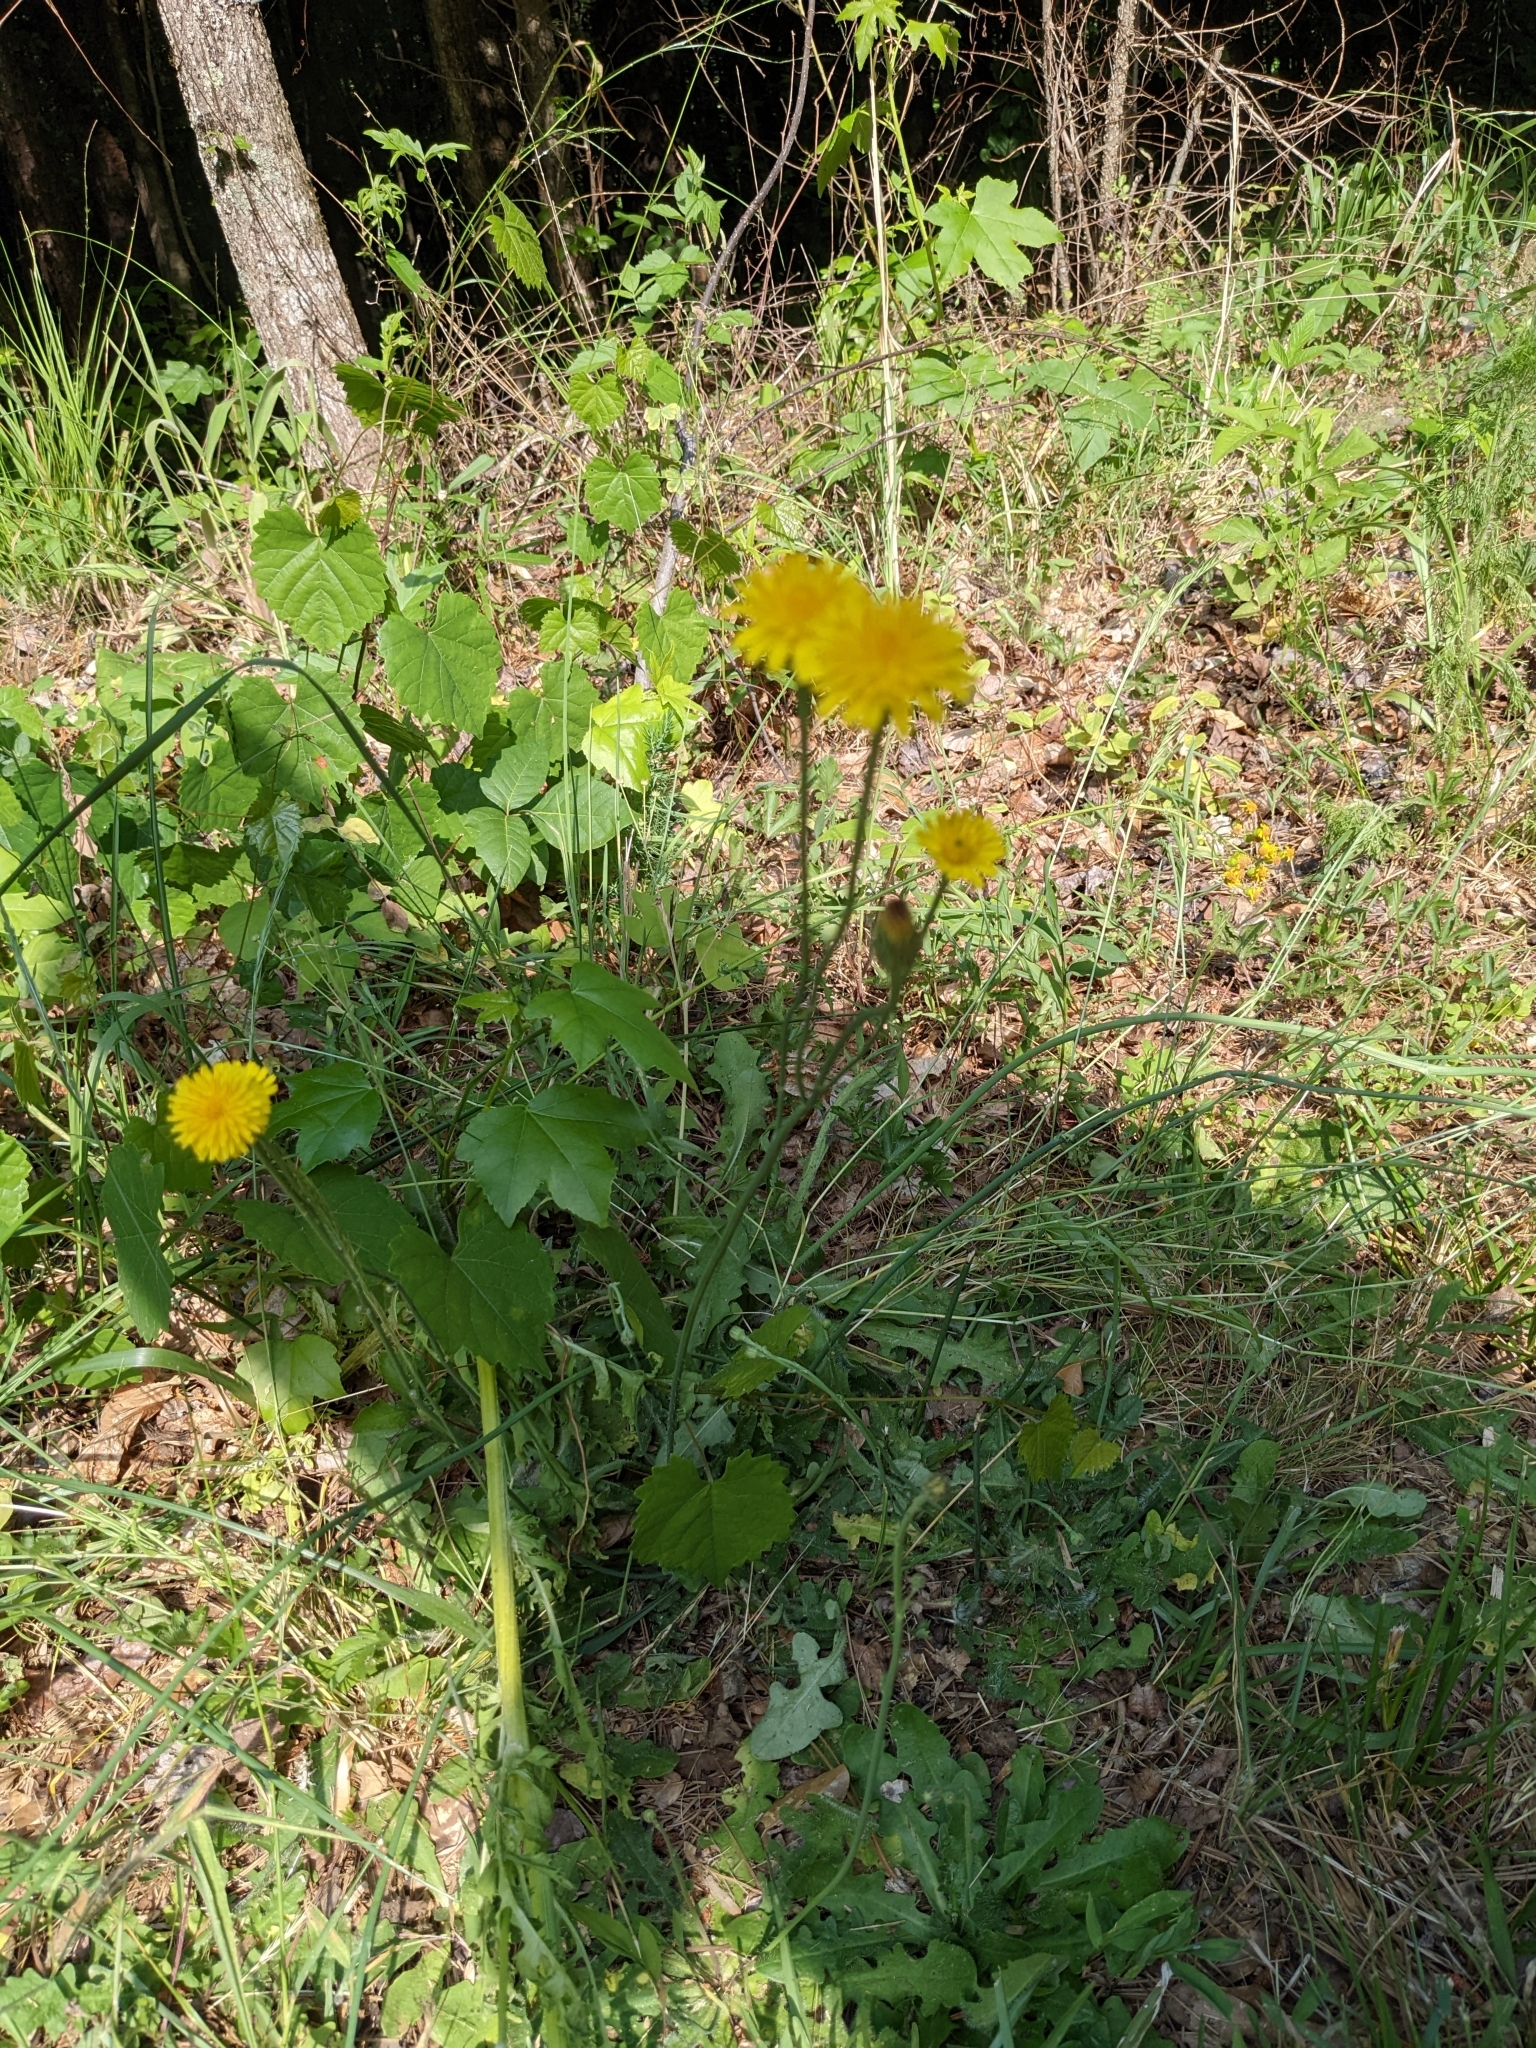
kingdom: Plantae
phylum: Tracheophyta
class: Magnoliopsida
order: Asterales
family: Asteraceae
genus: Hypochaeris
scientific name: Hypochaeris radicata
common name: Flatweed
